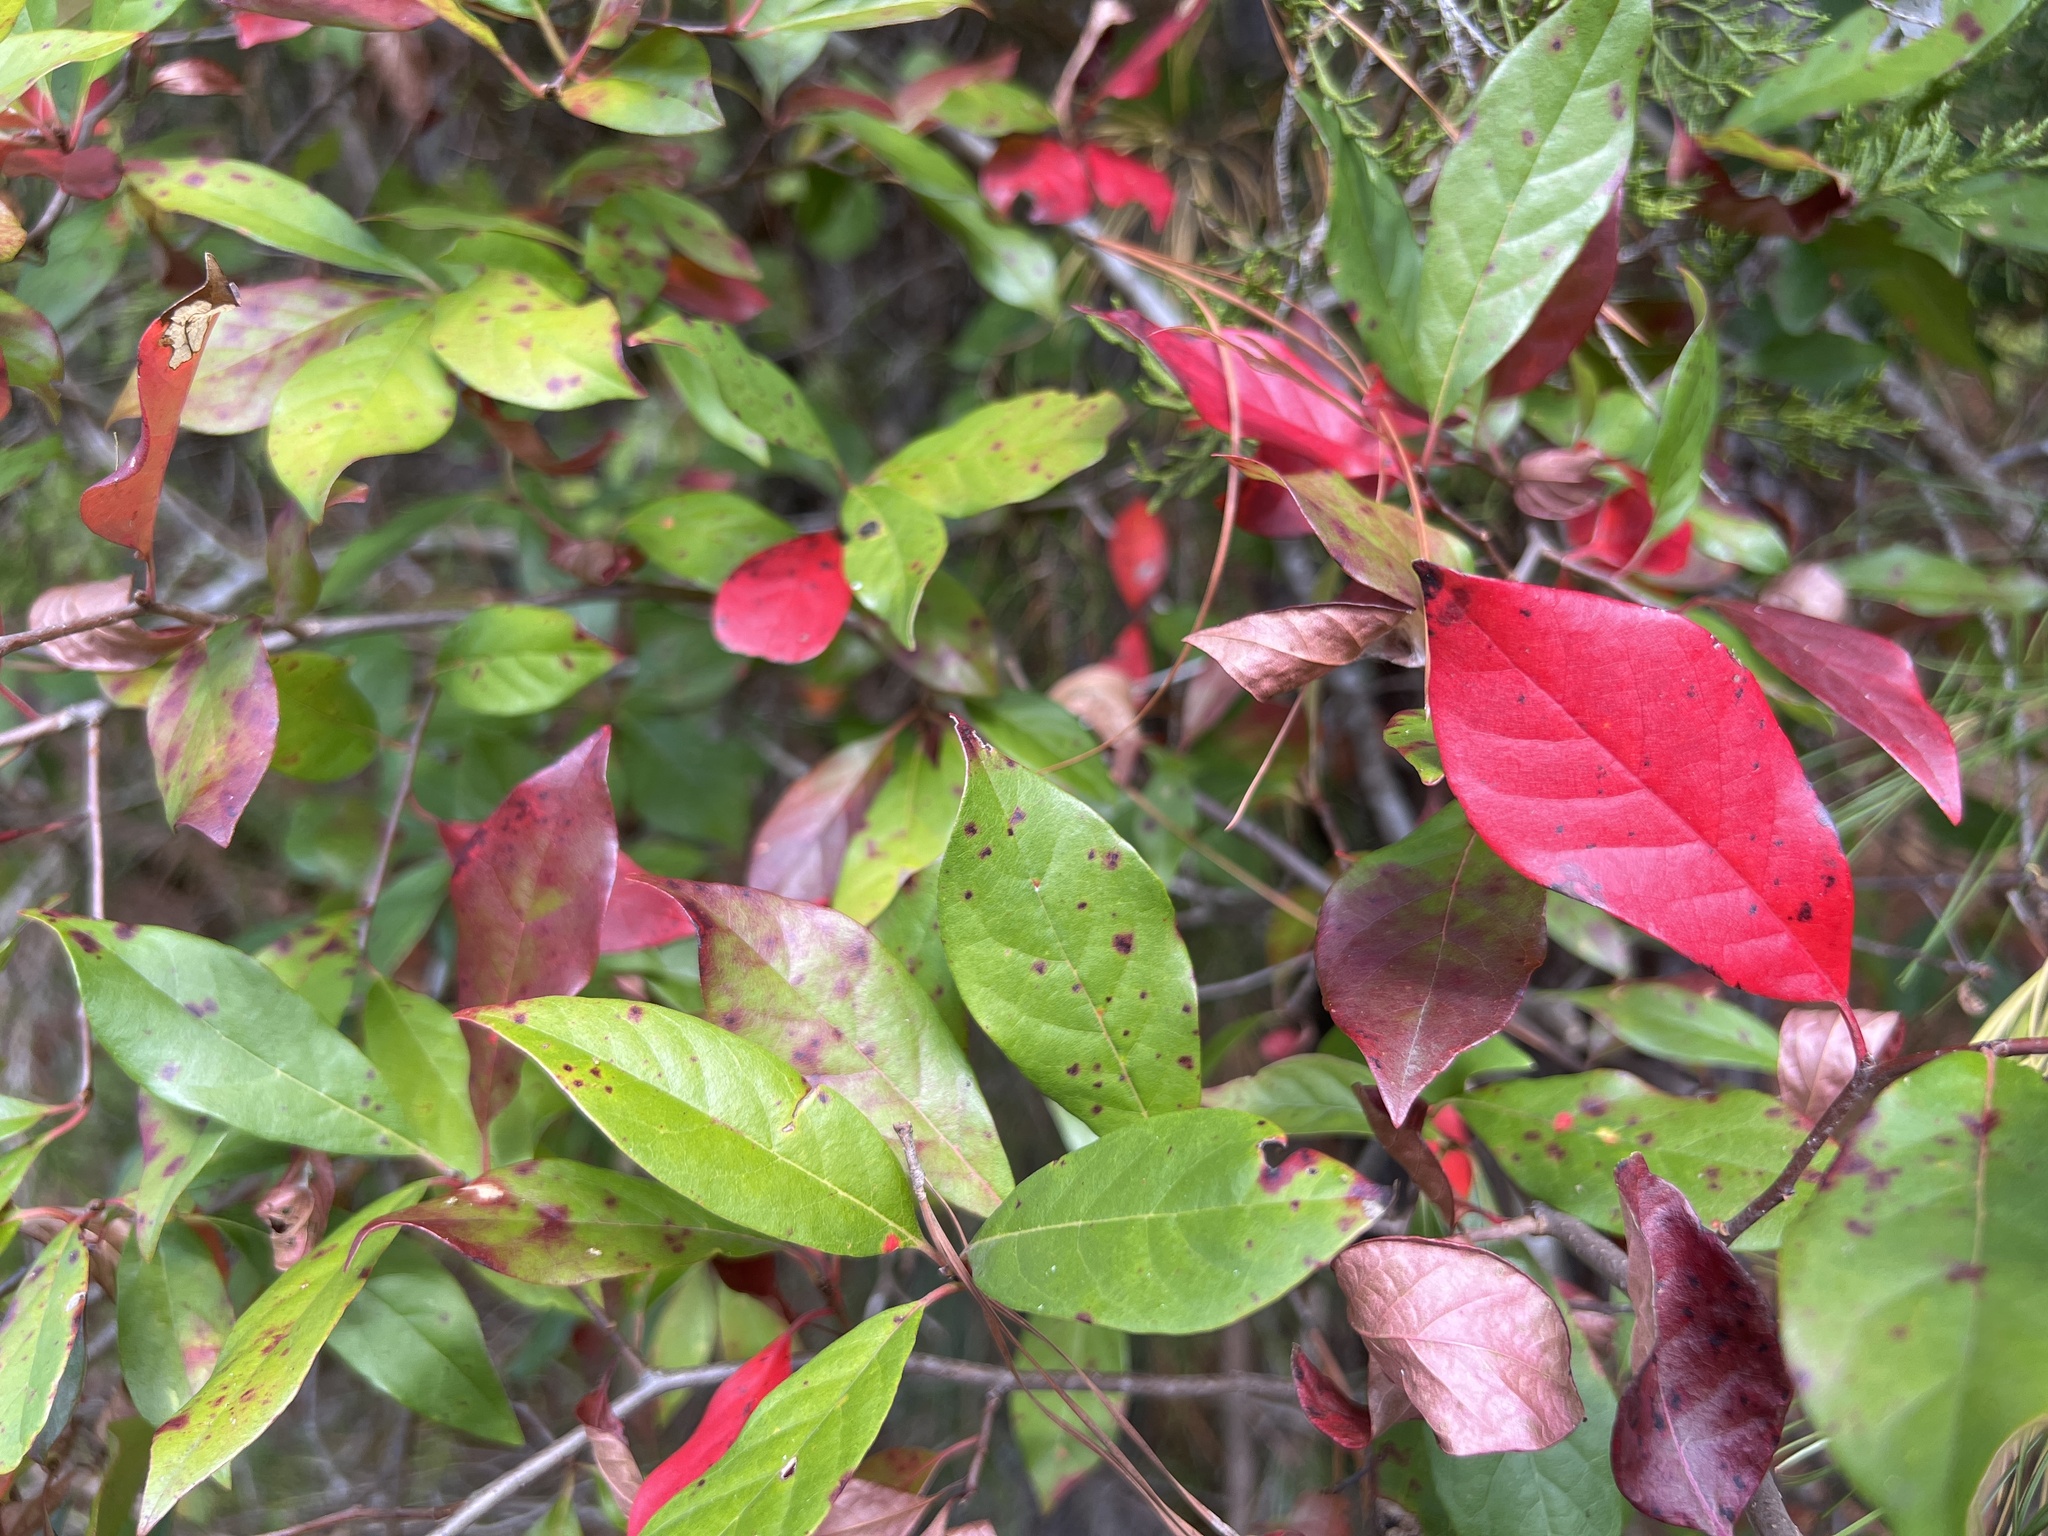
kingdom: Plantae
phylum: Tracheophyta
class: Magnoliopsida
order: Cornales
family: Nyssaceae
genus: Nyssa
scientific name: Nyssa sylvatica
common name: Black tupelo
